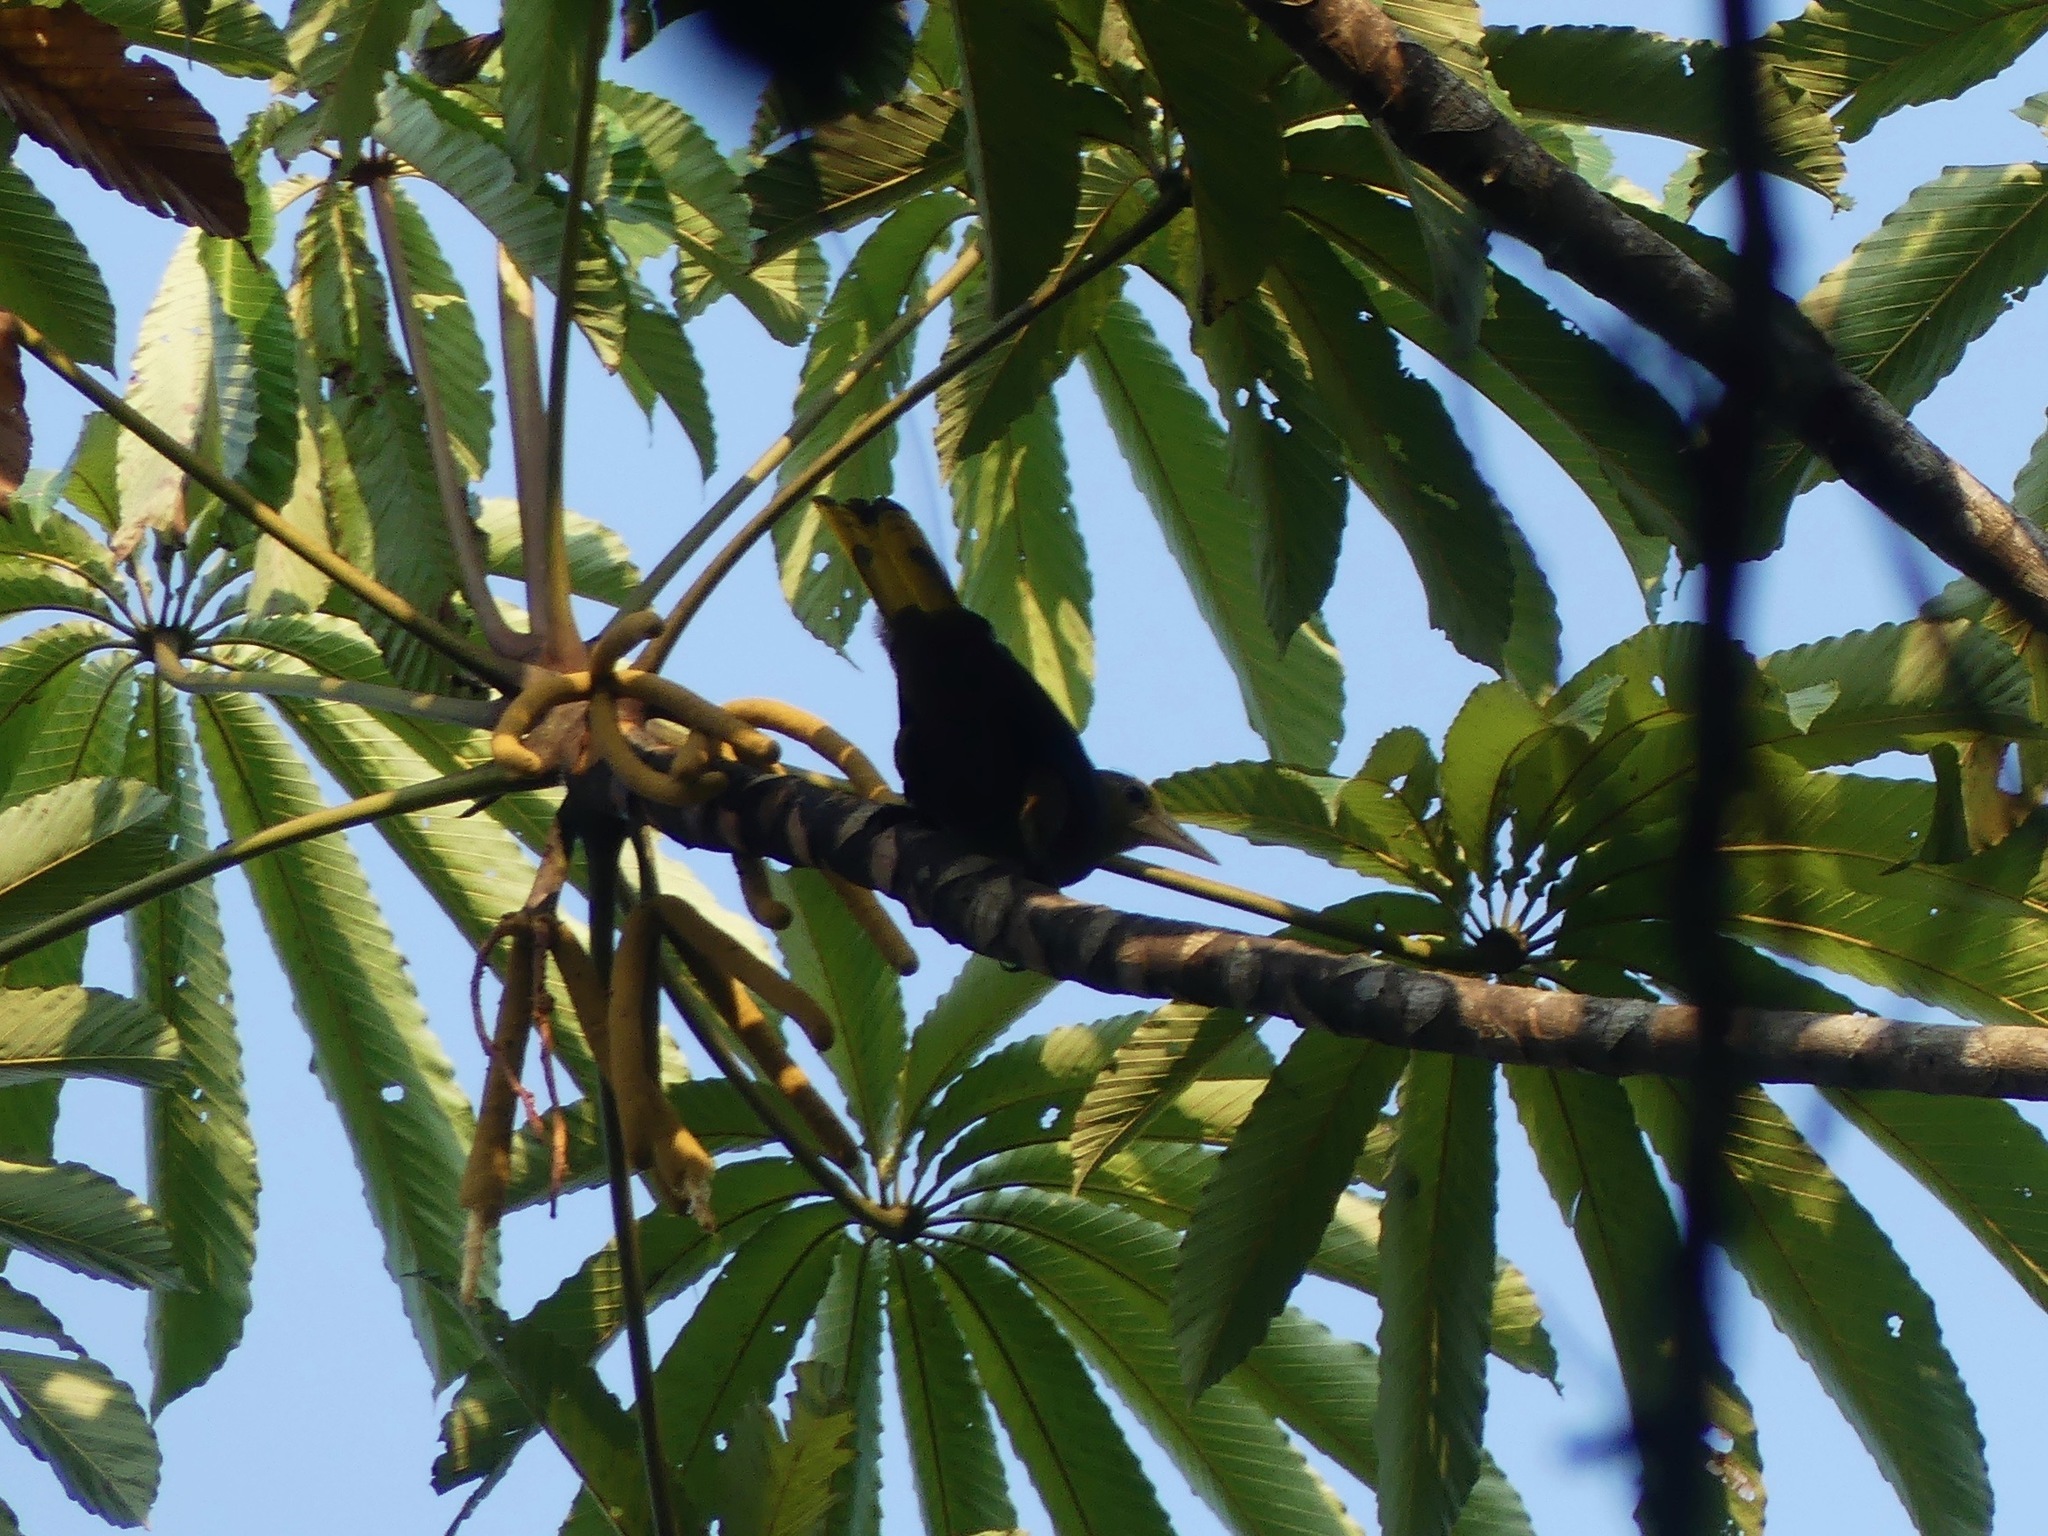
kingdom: Animalia
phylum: Chordata
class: Aves
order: Passeriformes
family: Icteridae
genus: Psarocolius
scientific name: Psarocolius angustifrons
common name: Russet-backed oropendola
